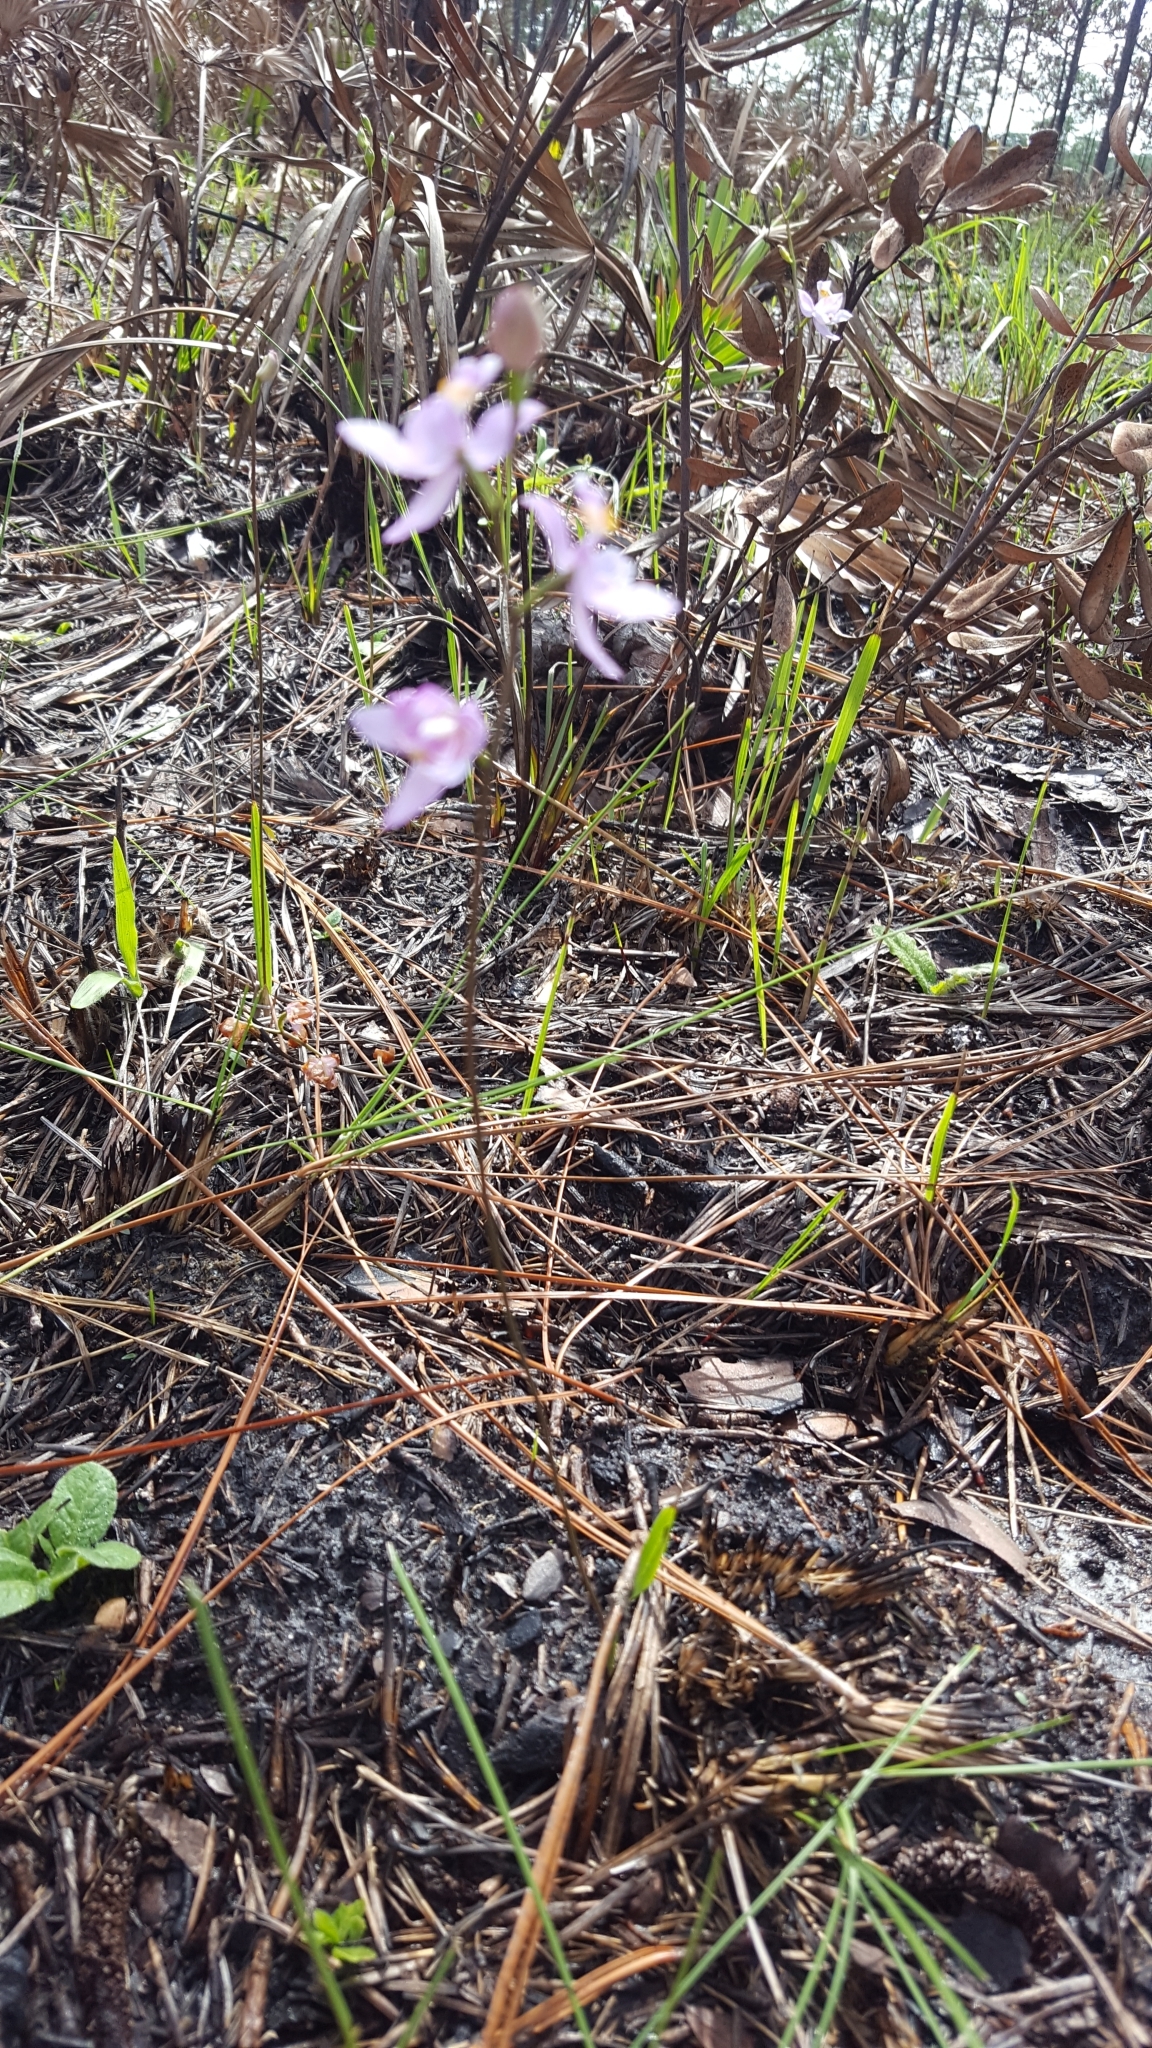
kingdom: Plantae
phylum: Tracheophyta
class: Liliopsida
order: Asparagales
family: Orchidaceae
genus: Calopogon
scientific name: Calopogon multiflorus
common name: Many-flowered grass-pink orchid
